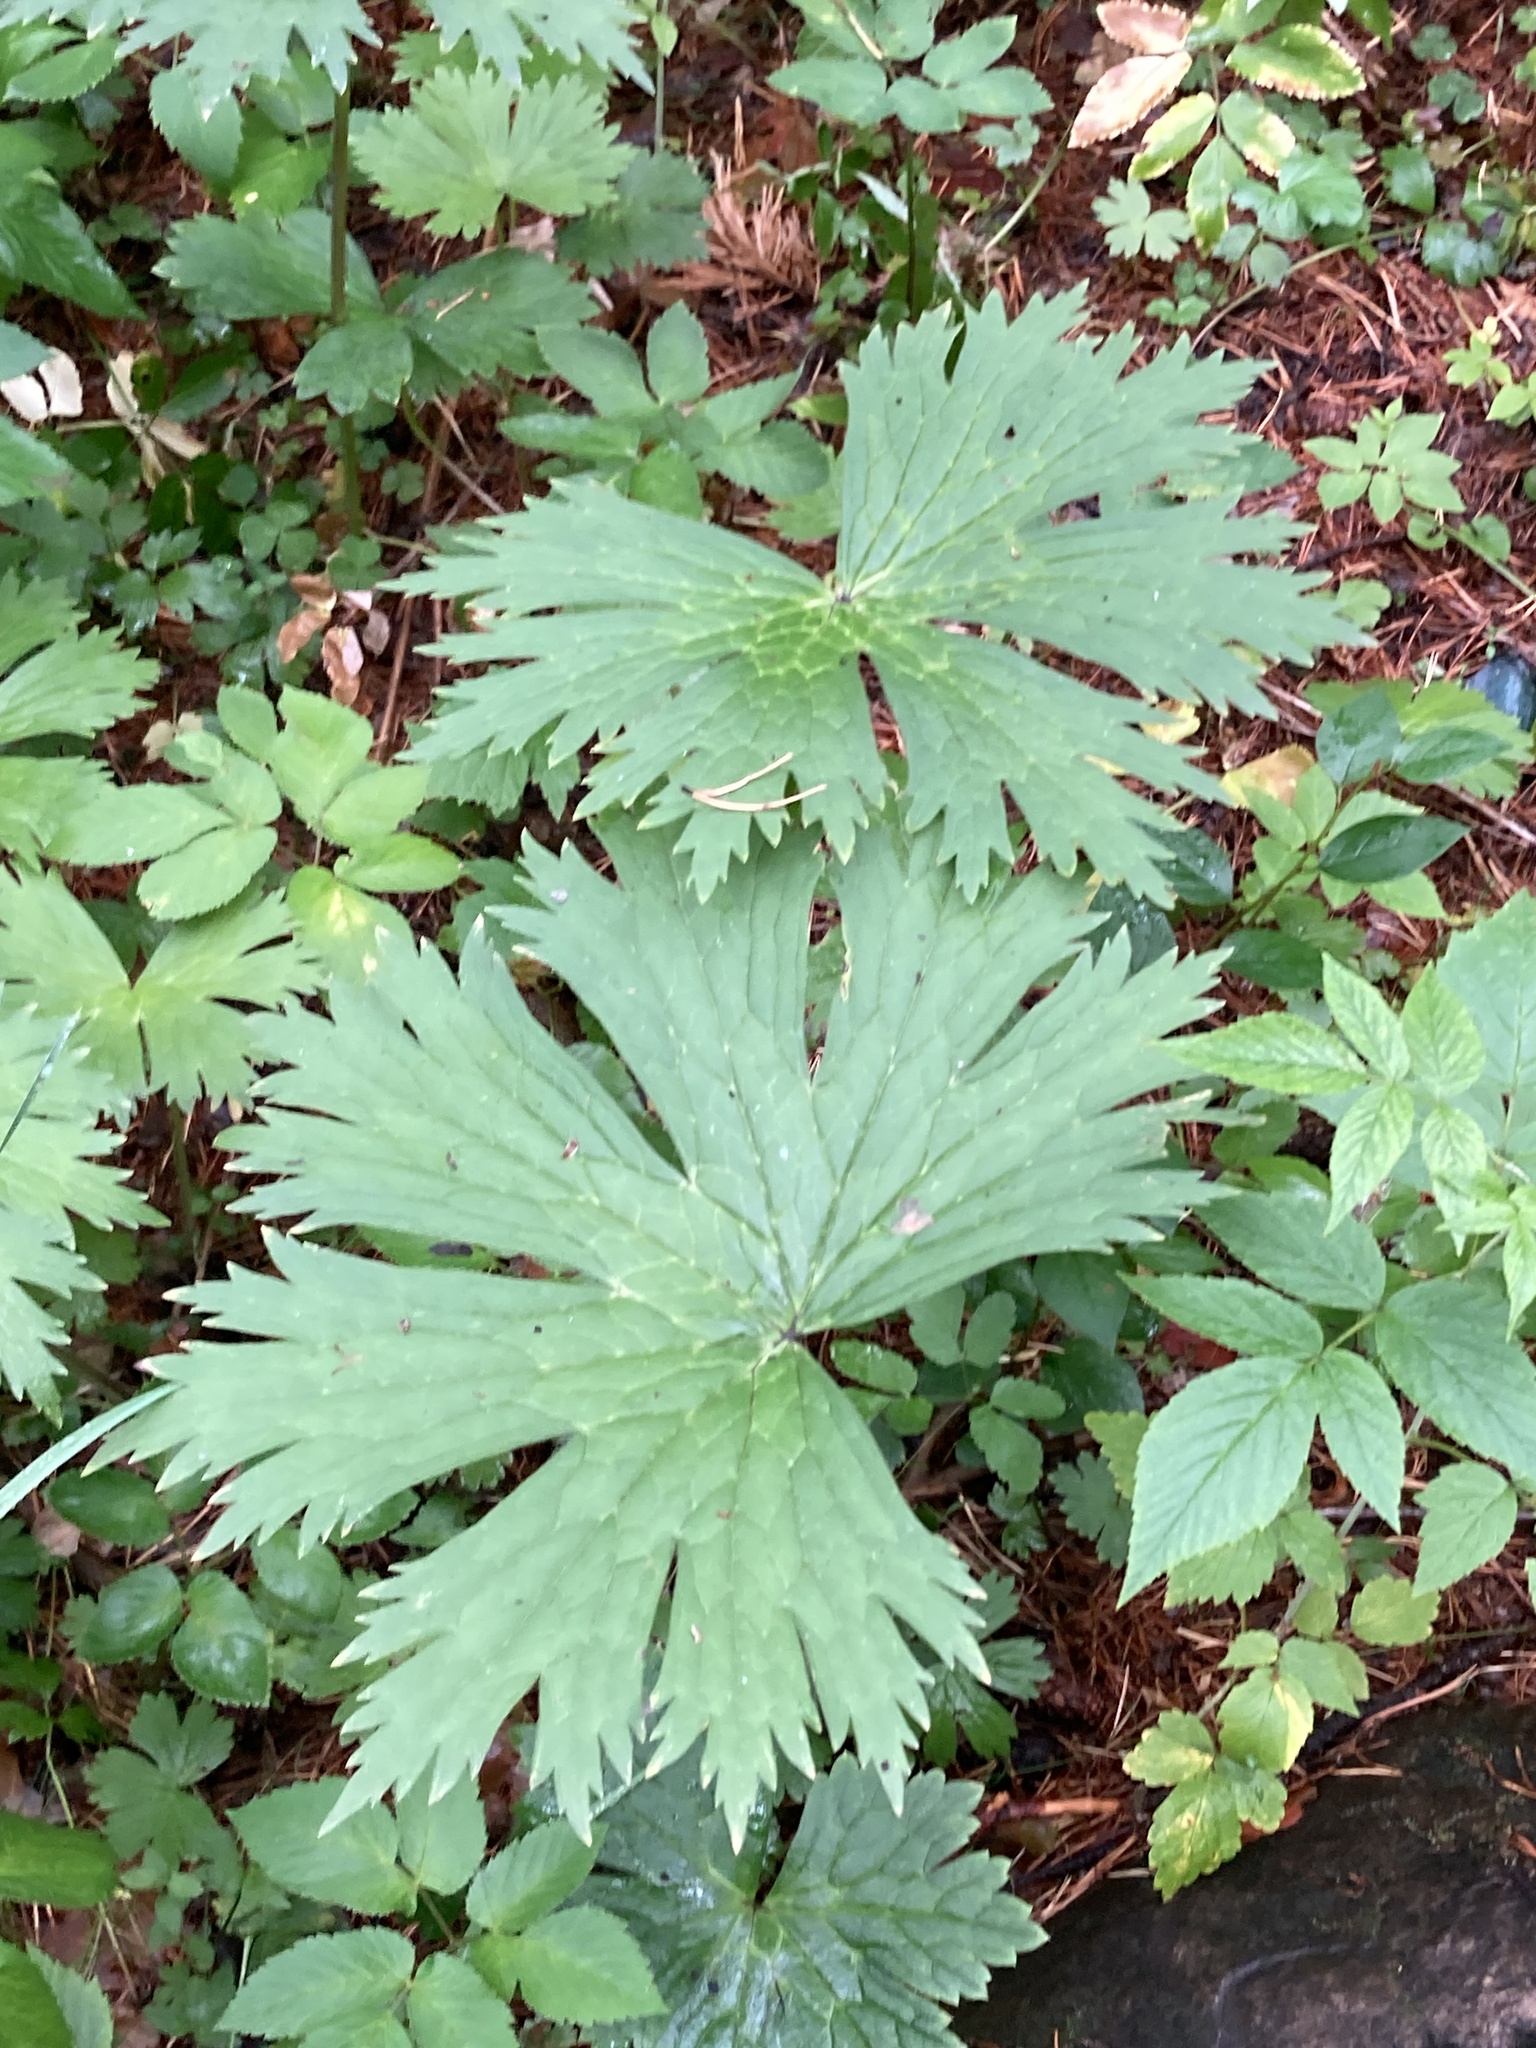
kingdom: Plantae
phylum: Tracheophyta
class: Magnoliopsida
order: Ranunculales
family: Ranunculaceae
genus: Aconitum
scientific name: Aconitum septentrionale
